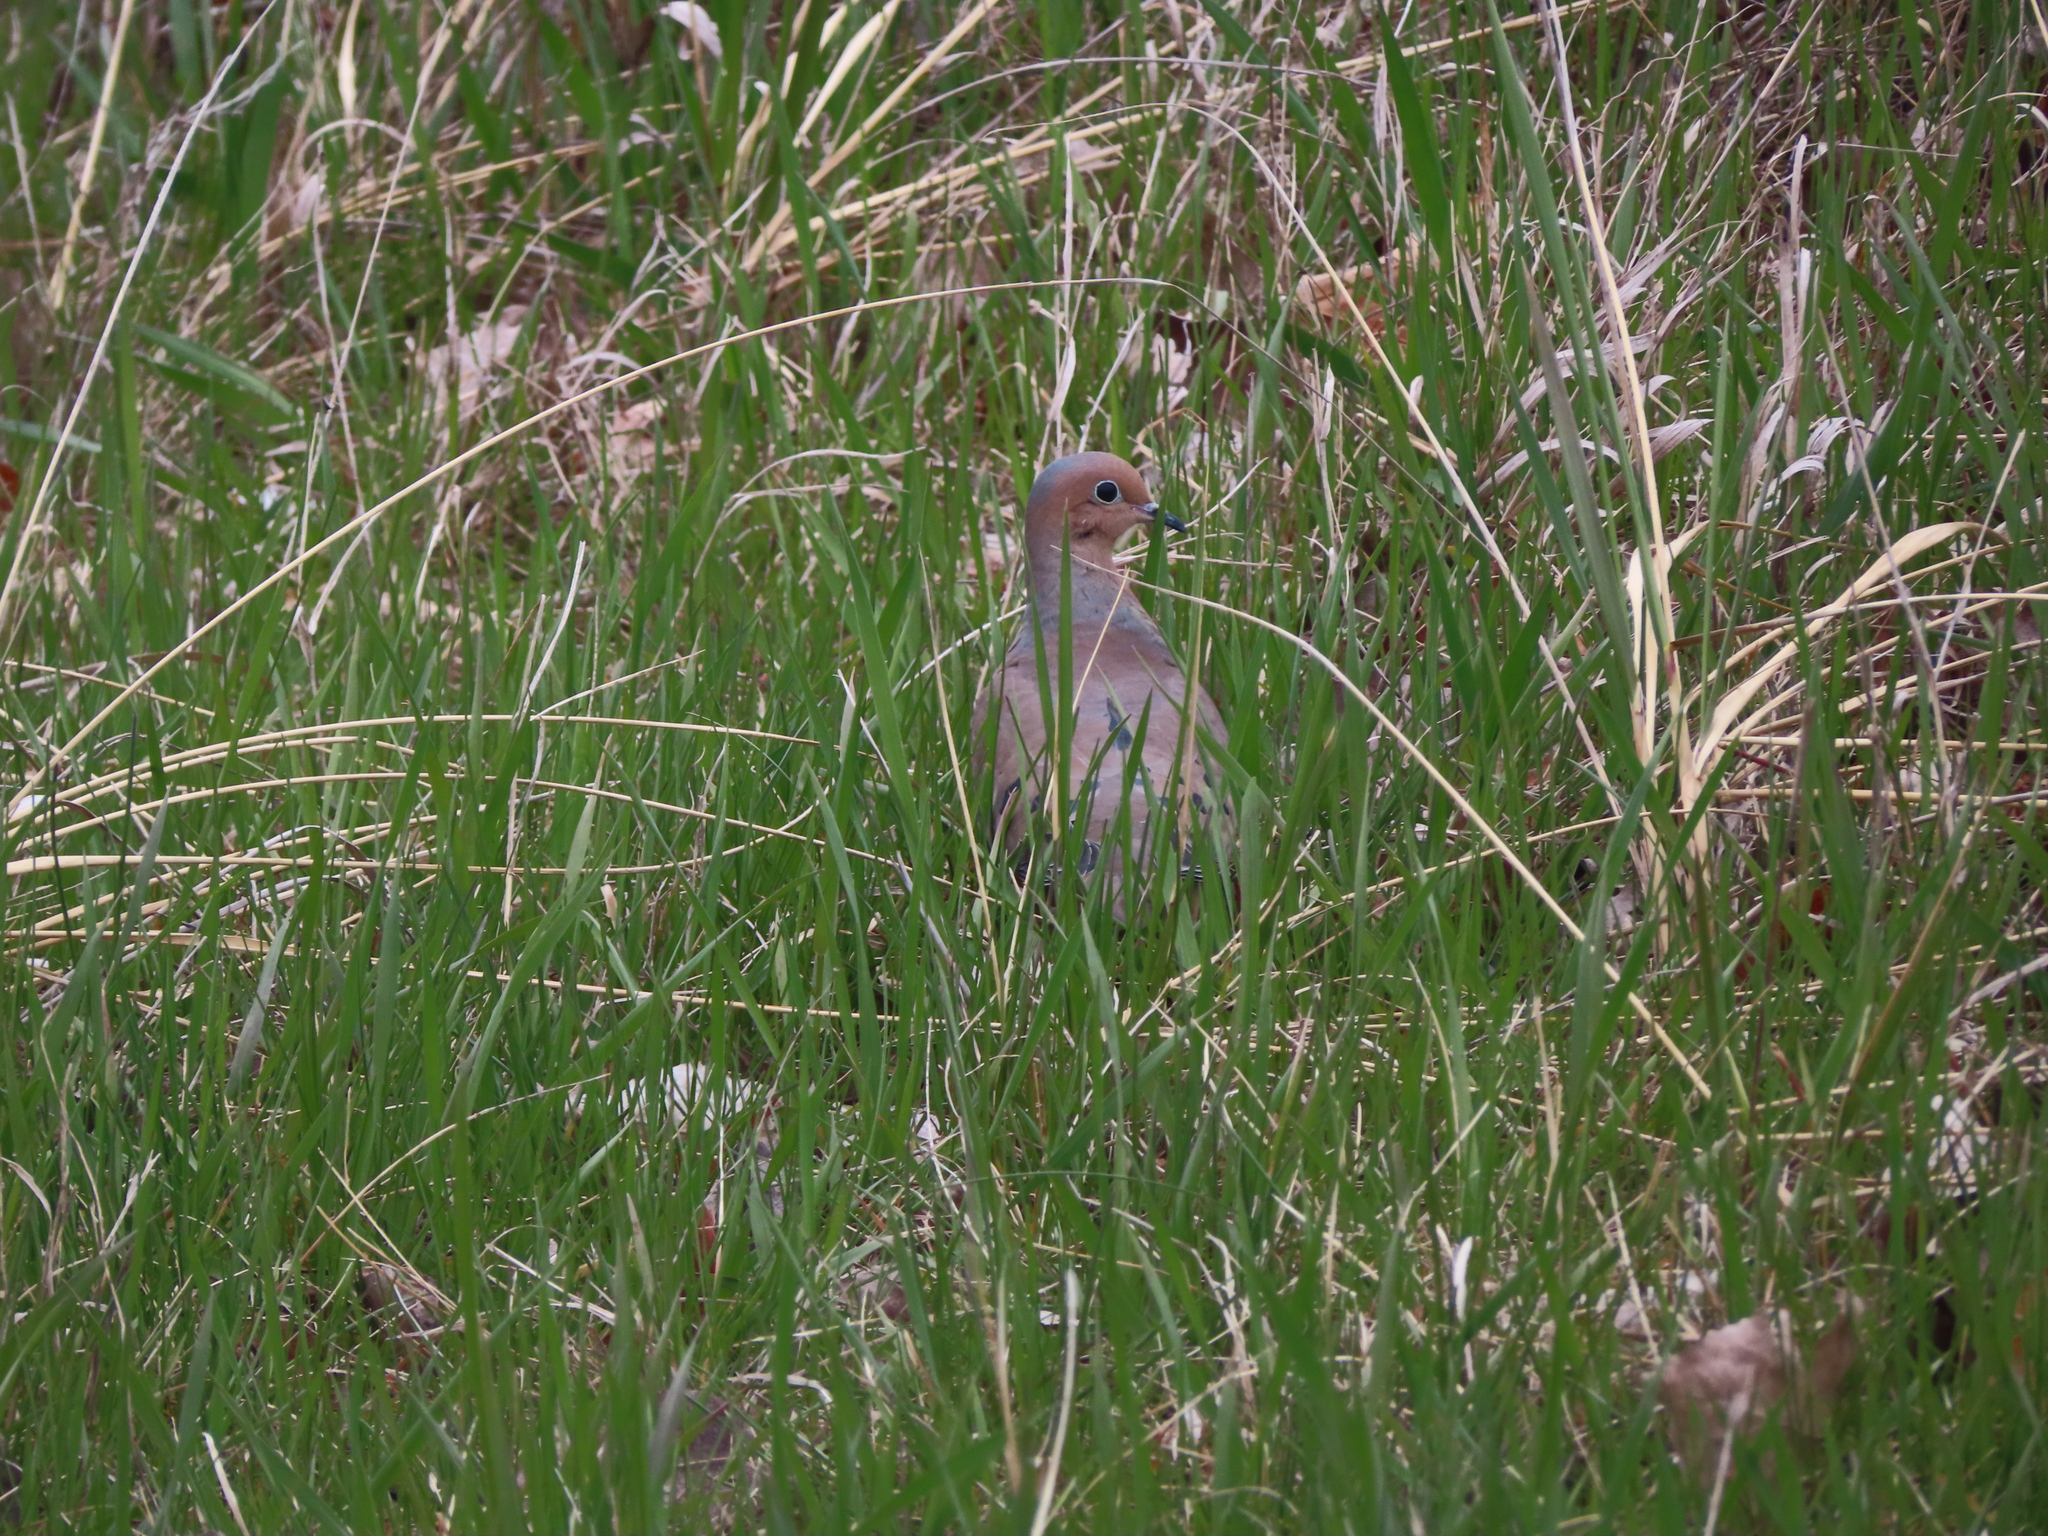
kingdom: Animalia
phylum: Chordata
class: Aves
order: Columbiformes
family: Columbidae
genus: Zenaida
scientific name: Zenaida macroura
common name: Mourning dove
